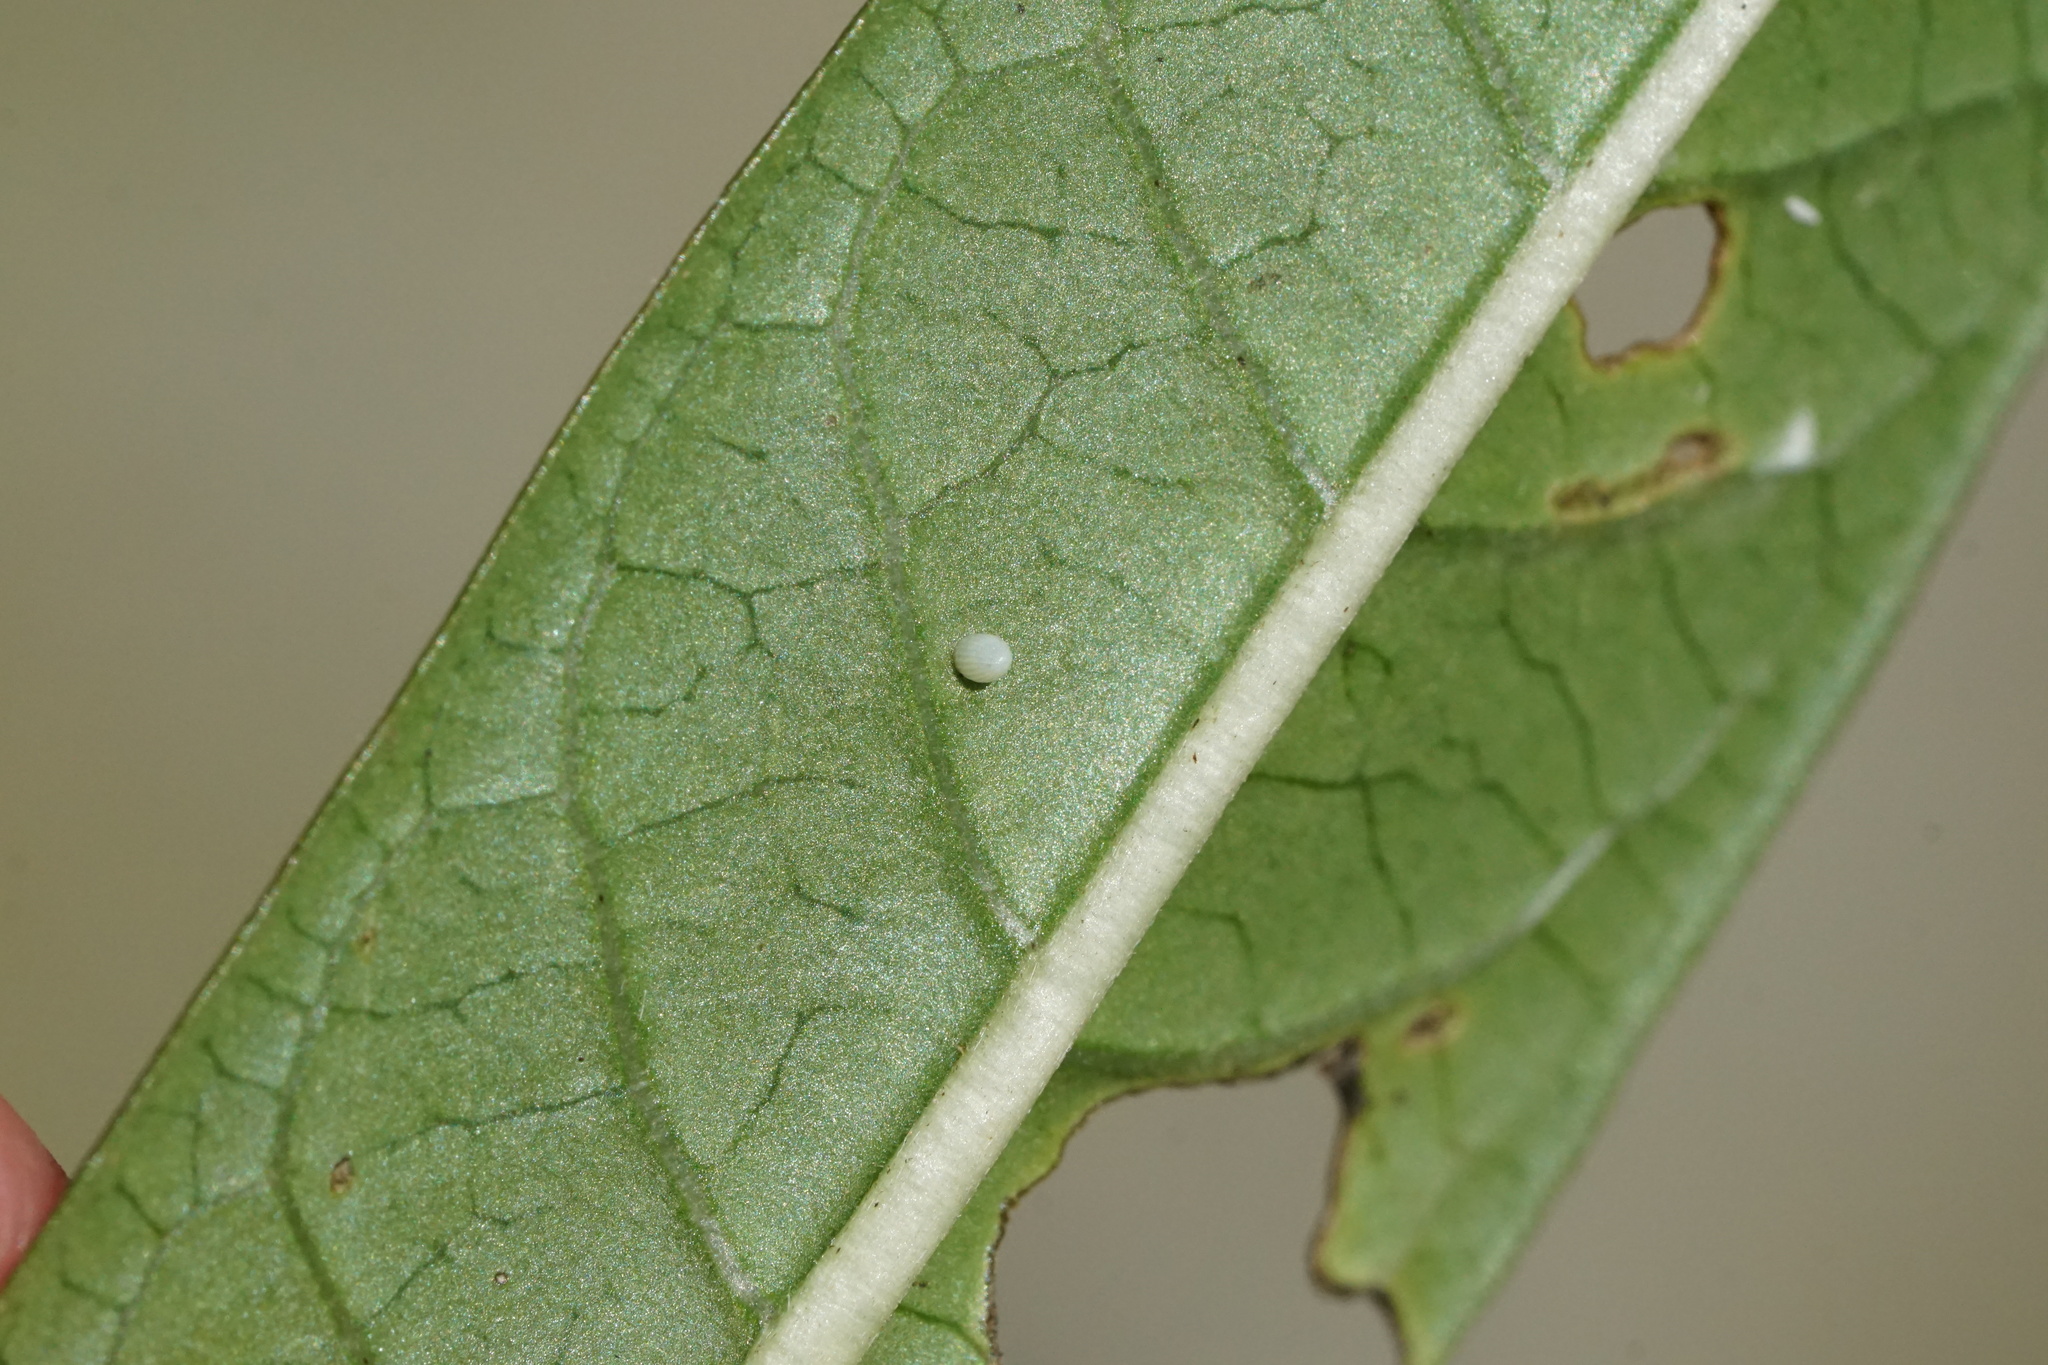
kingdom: Animalia
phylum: Arthropoda
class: Insecta
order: Lepidoptera
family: Nymphalidae
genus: Danaus
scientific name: Danaus plexippus
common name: Monarch
